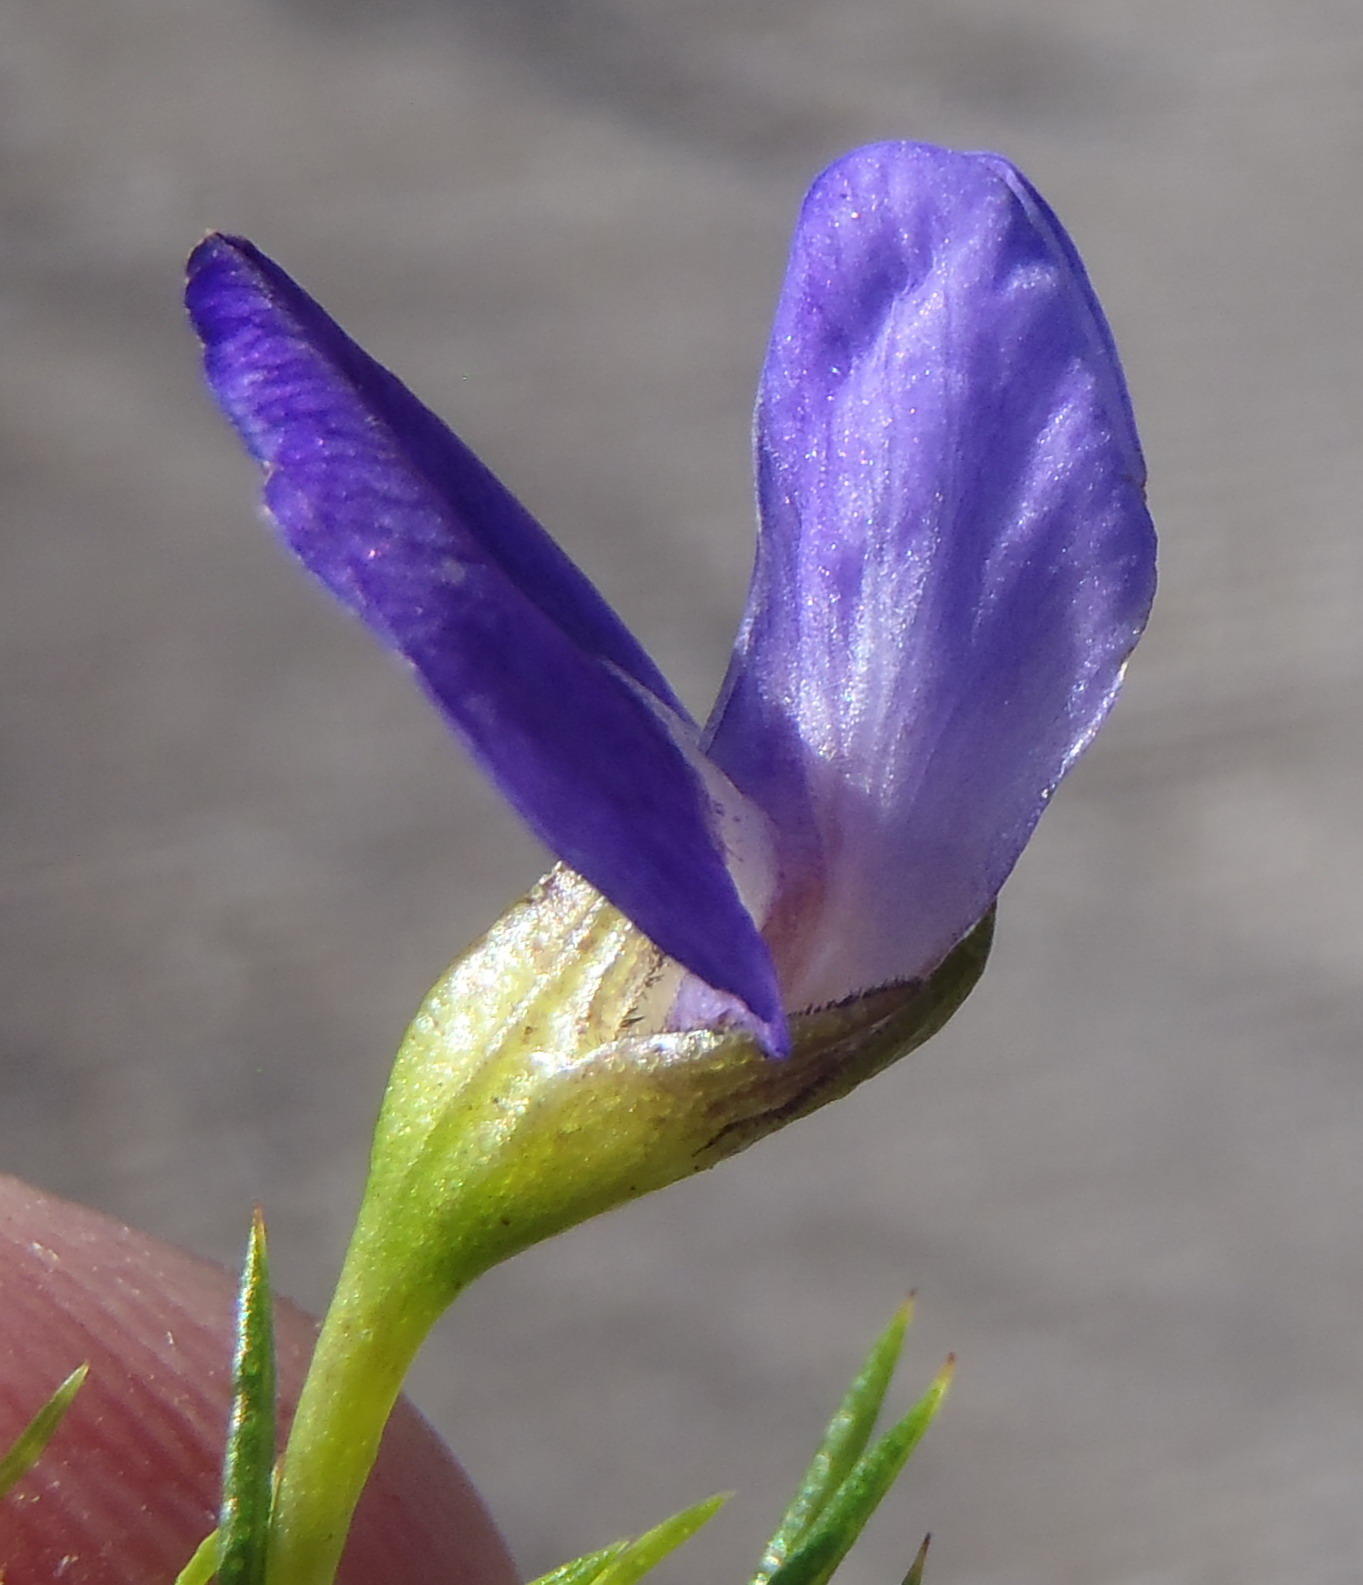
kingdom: Plantae
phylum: Tracheophyta
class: Magnoliopsida
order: Fabales
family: Fabaceae
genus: Psoralea
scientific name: Psoralea azuroides
